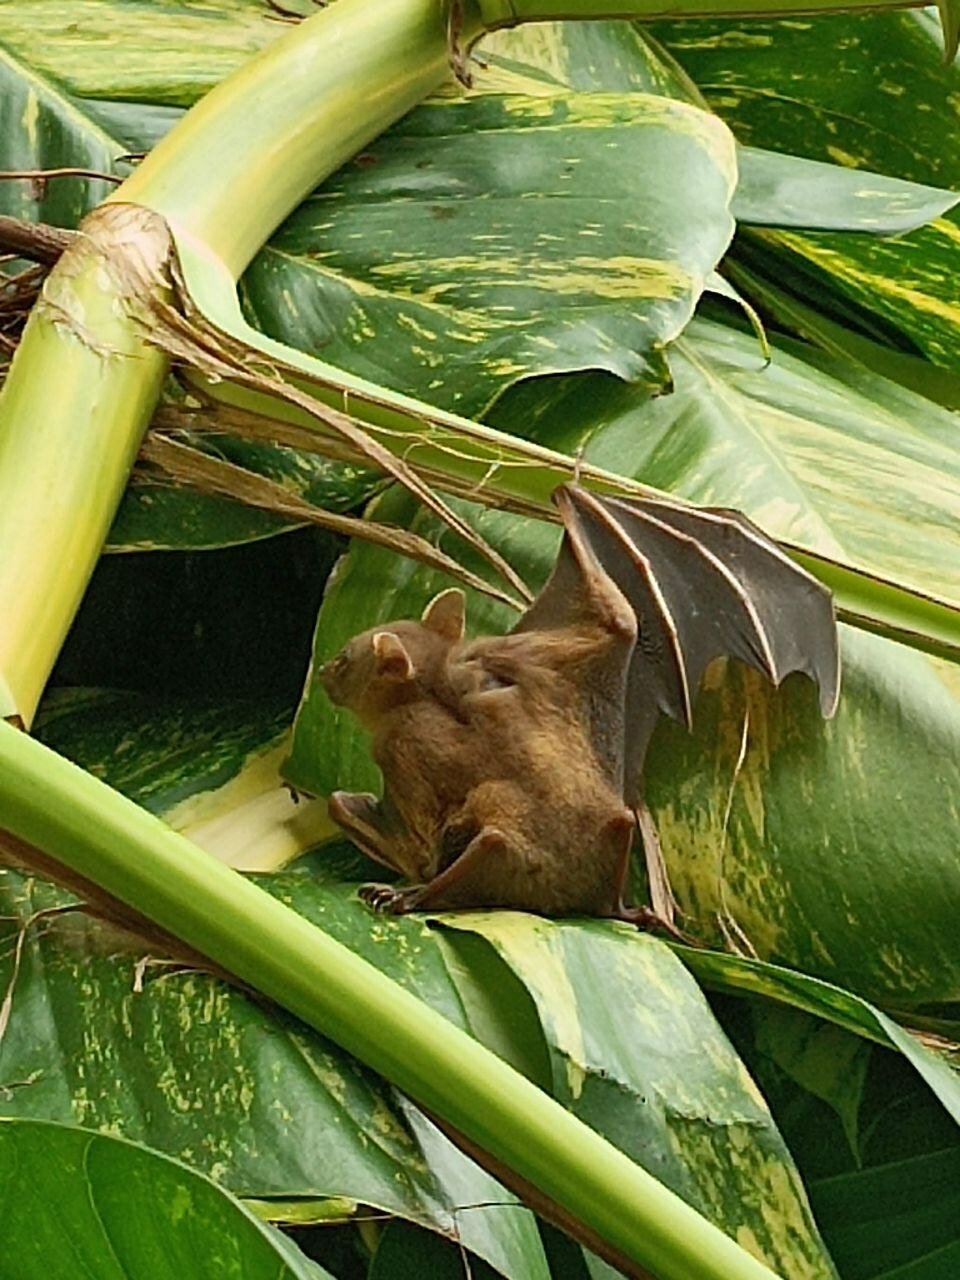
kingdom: Animalia
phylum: Chordata
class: Mammalia
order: Chiroptera
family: Pteropodidae
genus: Cynopterus
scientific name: Cynopterus brachyotis
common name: Lesser short-nosed fruit bat
